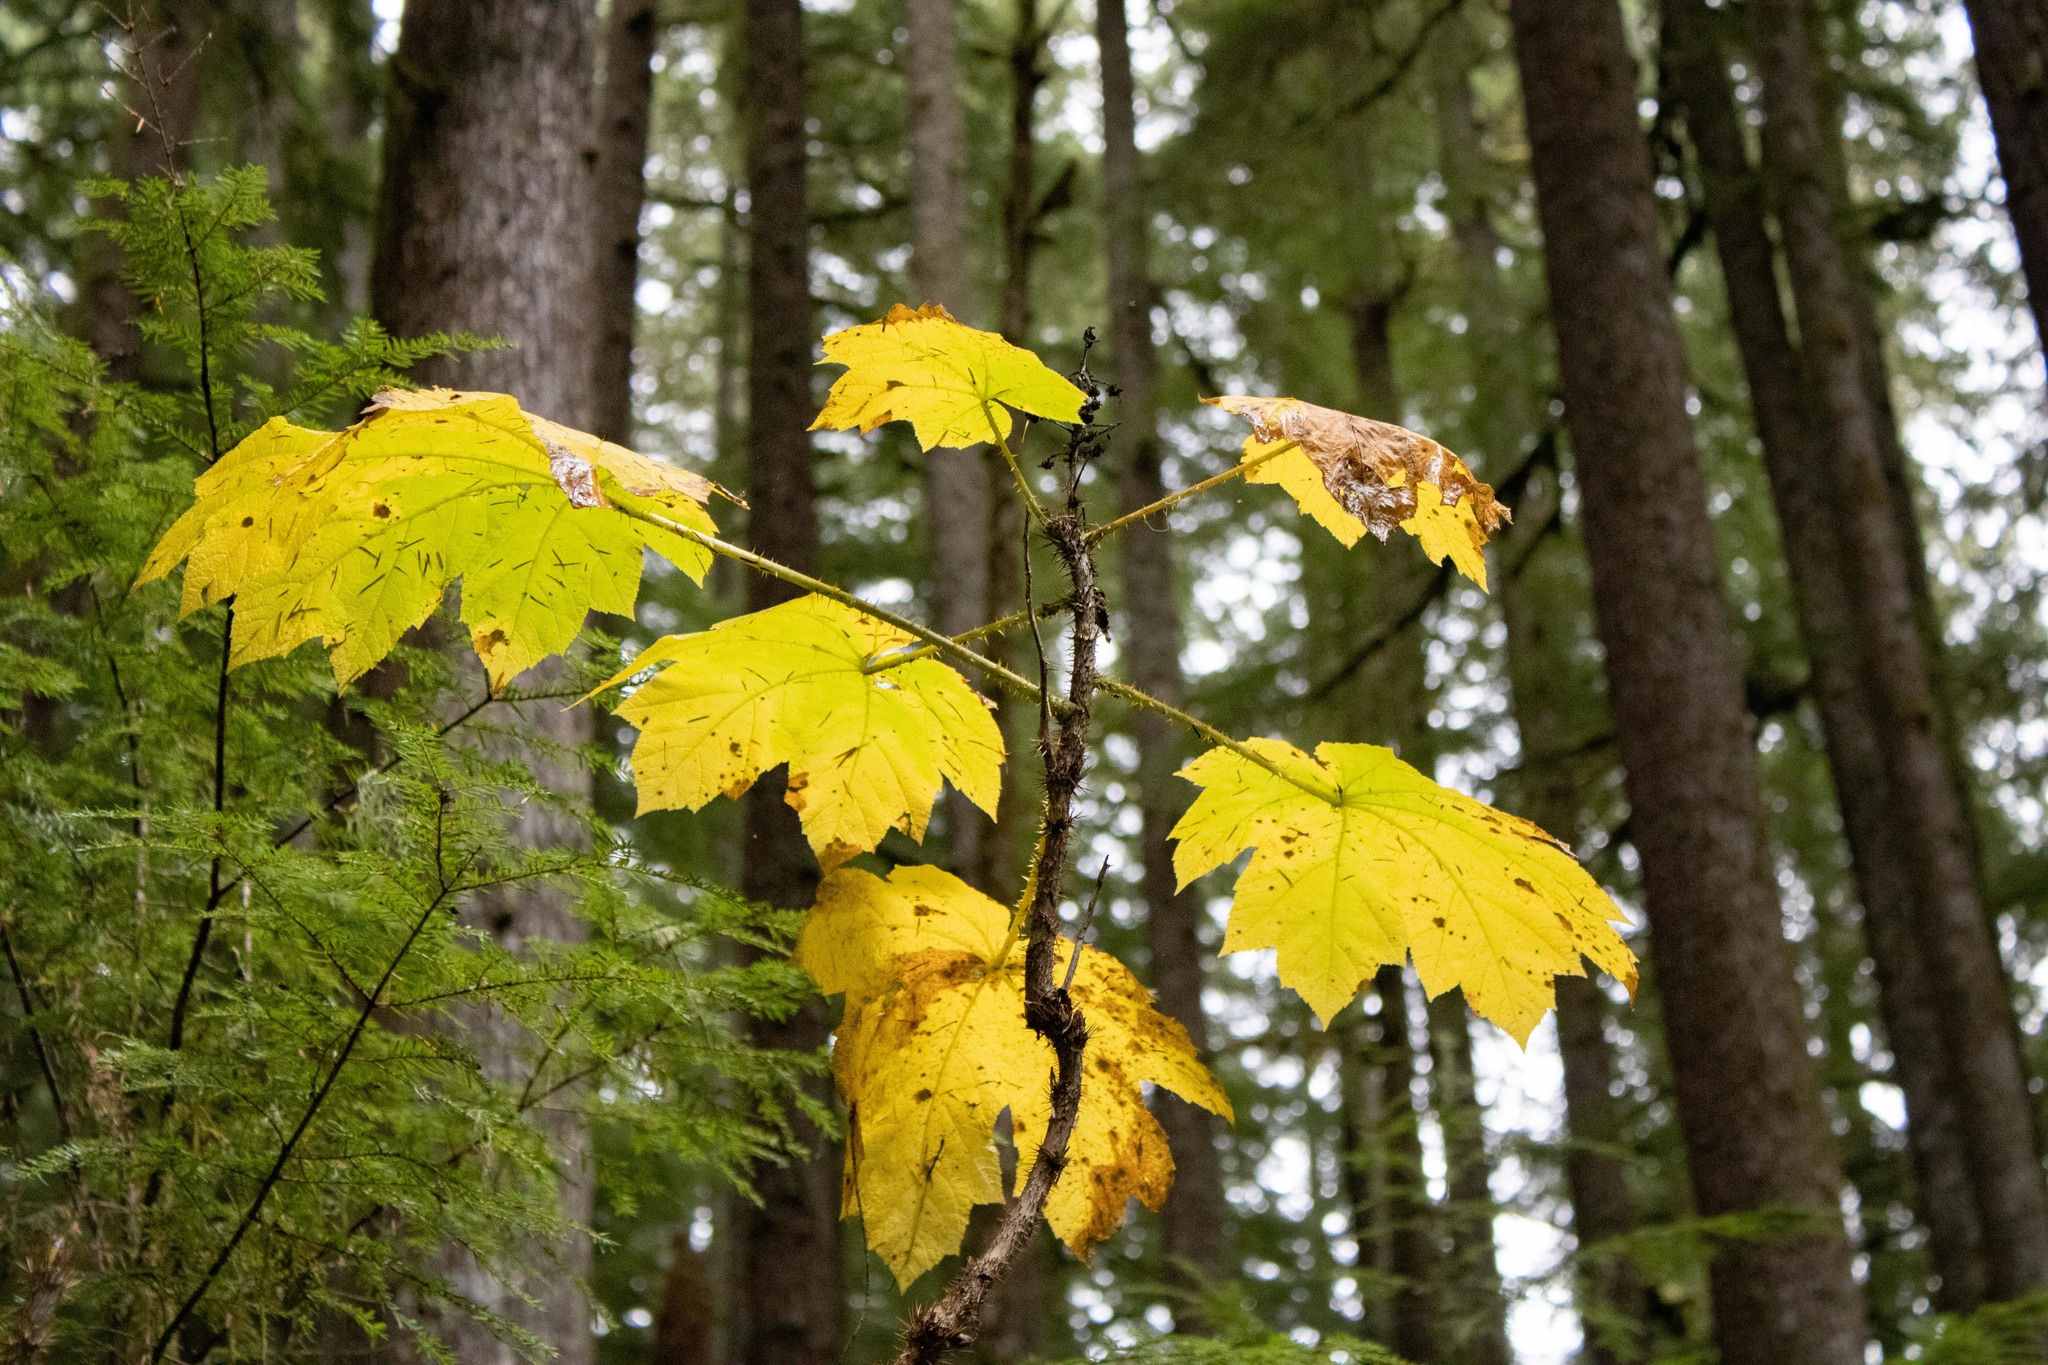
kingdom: Plantae
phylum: Tracheophyta
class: Magnoliopsida
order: Apiales
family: Araliaceae
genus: Oplopanax
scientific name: Oplopanax horridus
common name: Devil's walking-stick
